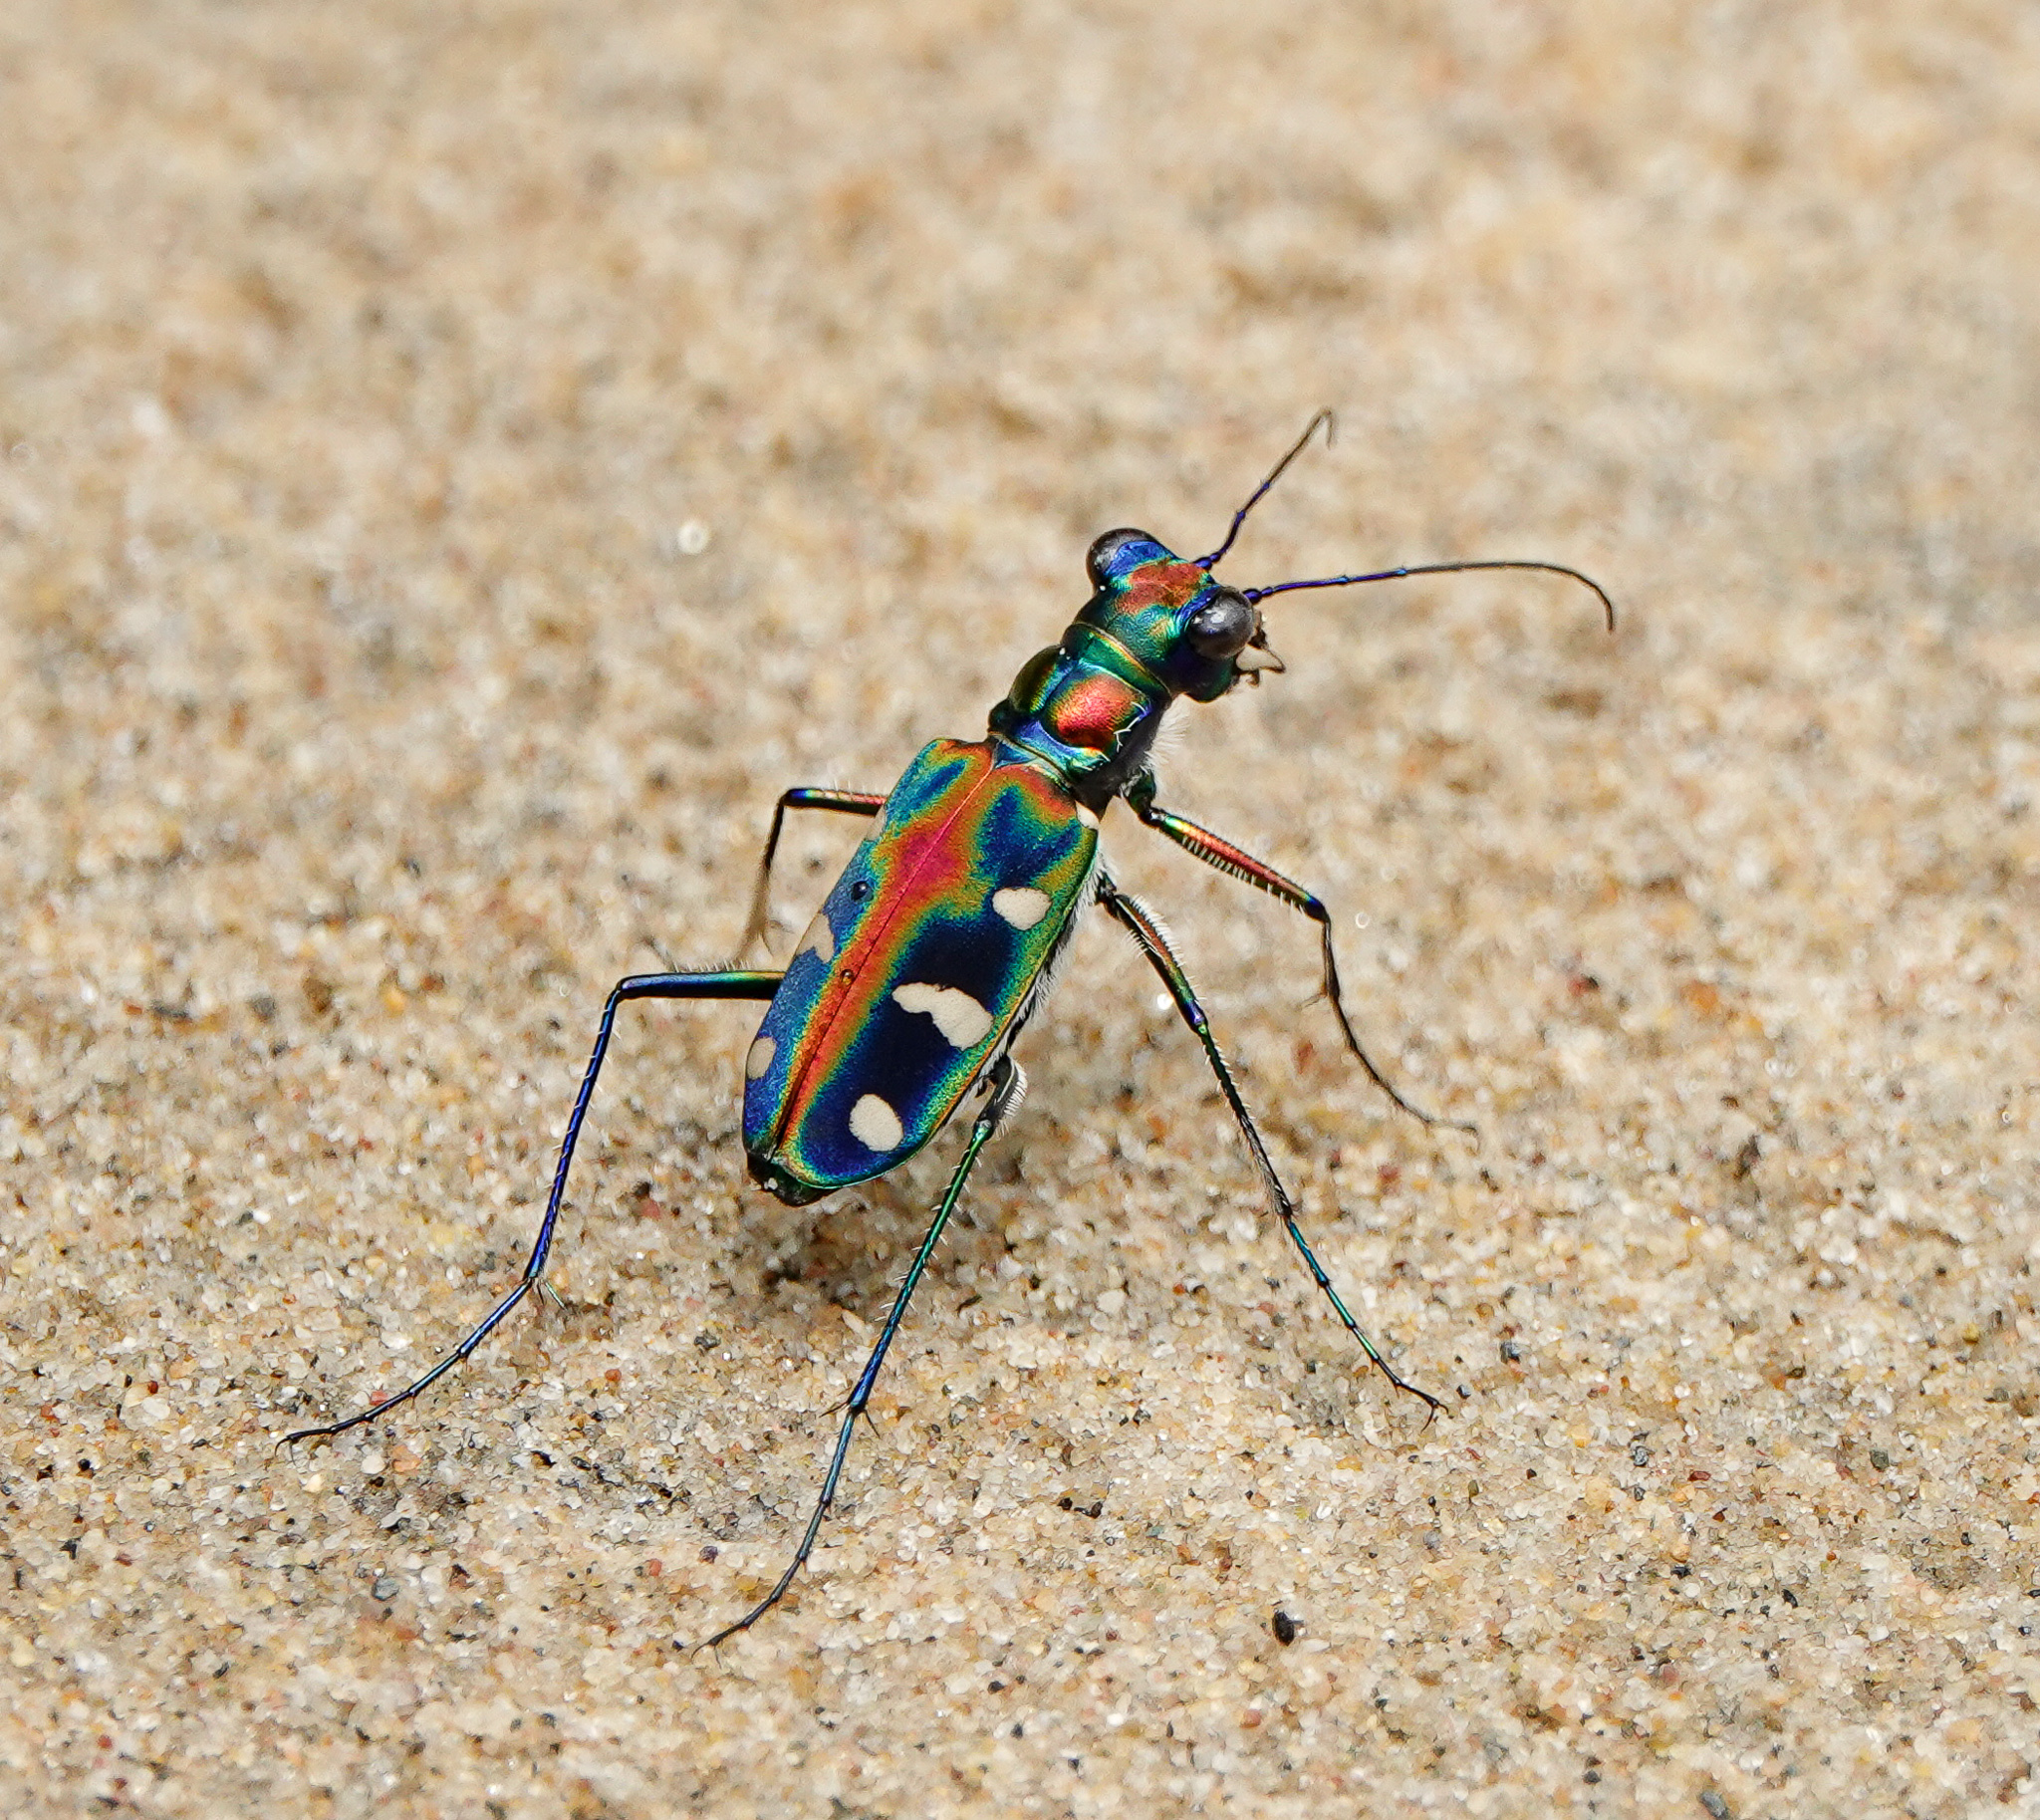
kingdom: Animalia
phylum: Arthropoda
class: Insecta
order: Coleoptera
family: Carabidae
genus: Cicindela
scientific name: Cicindela virgula
